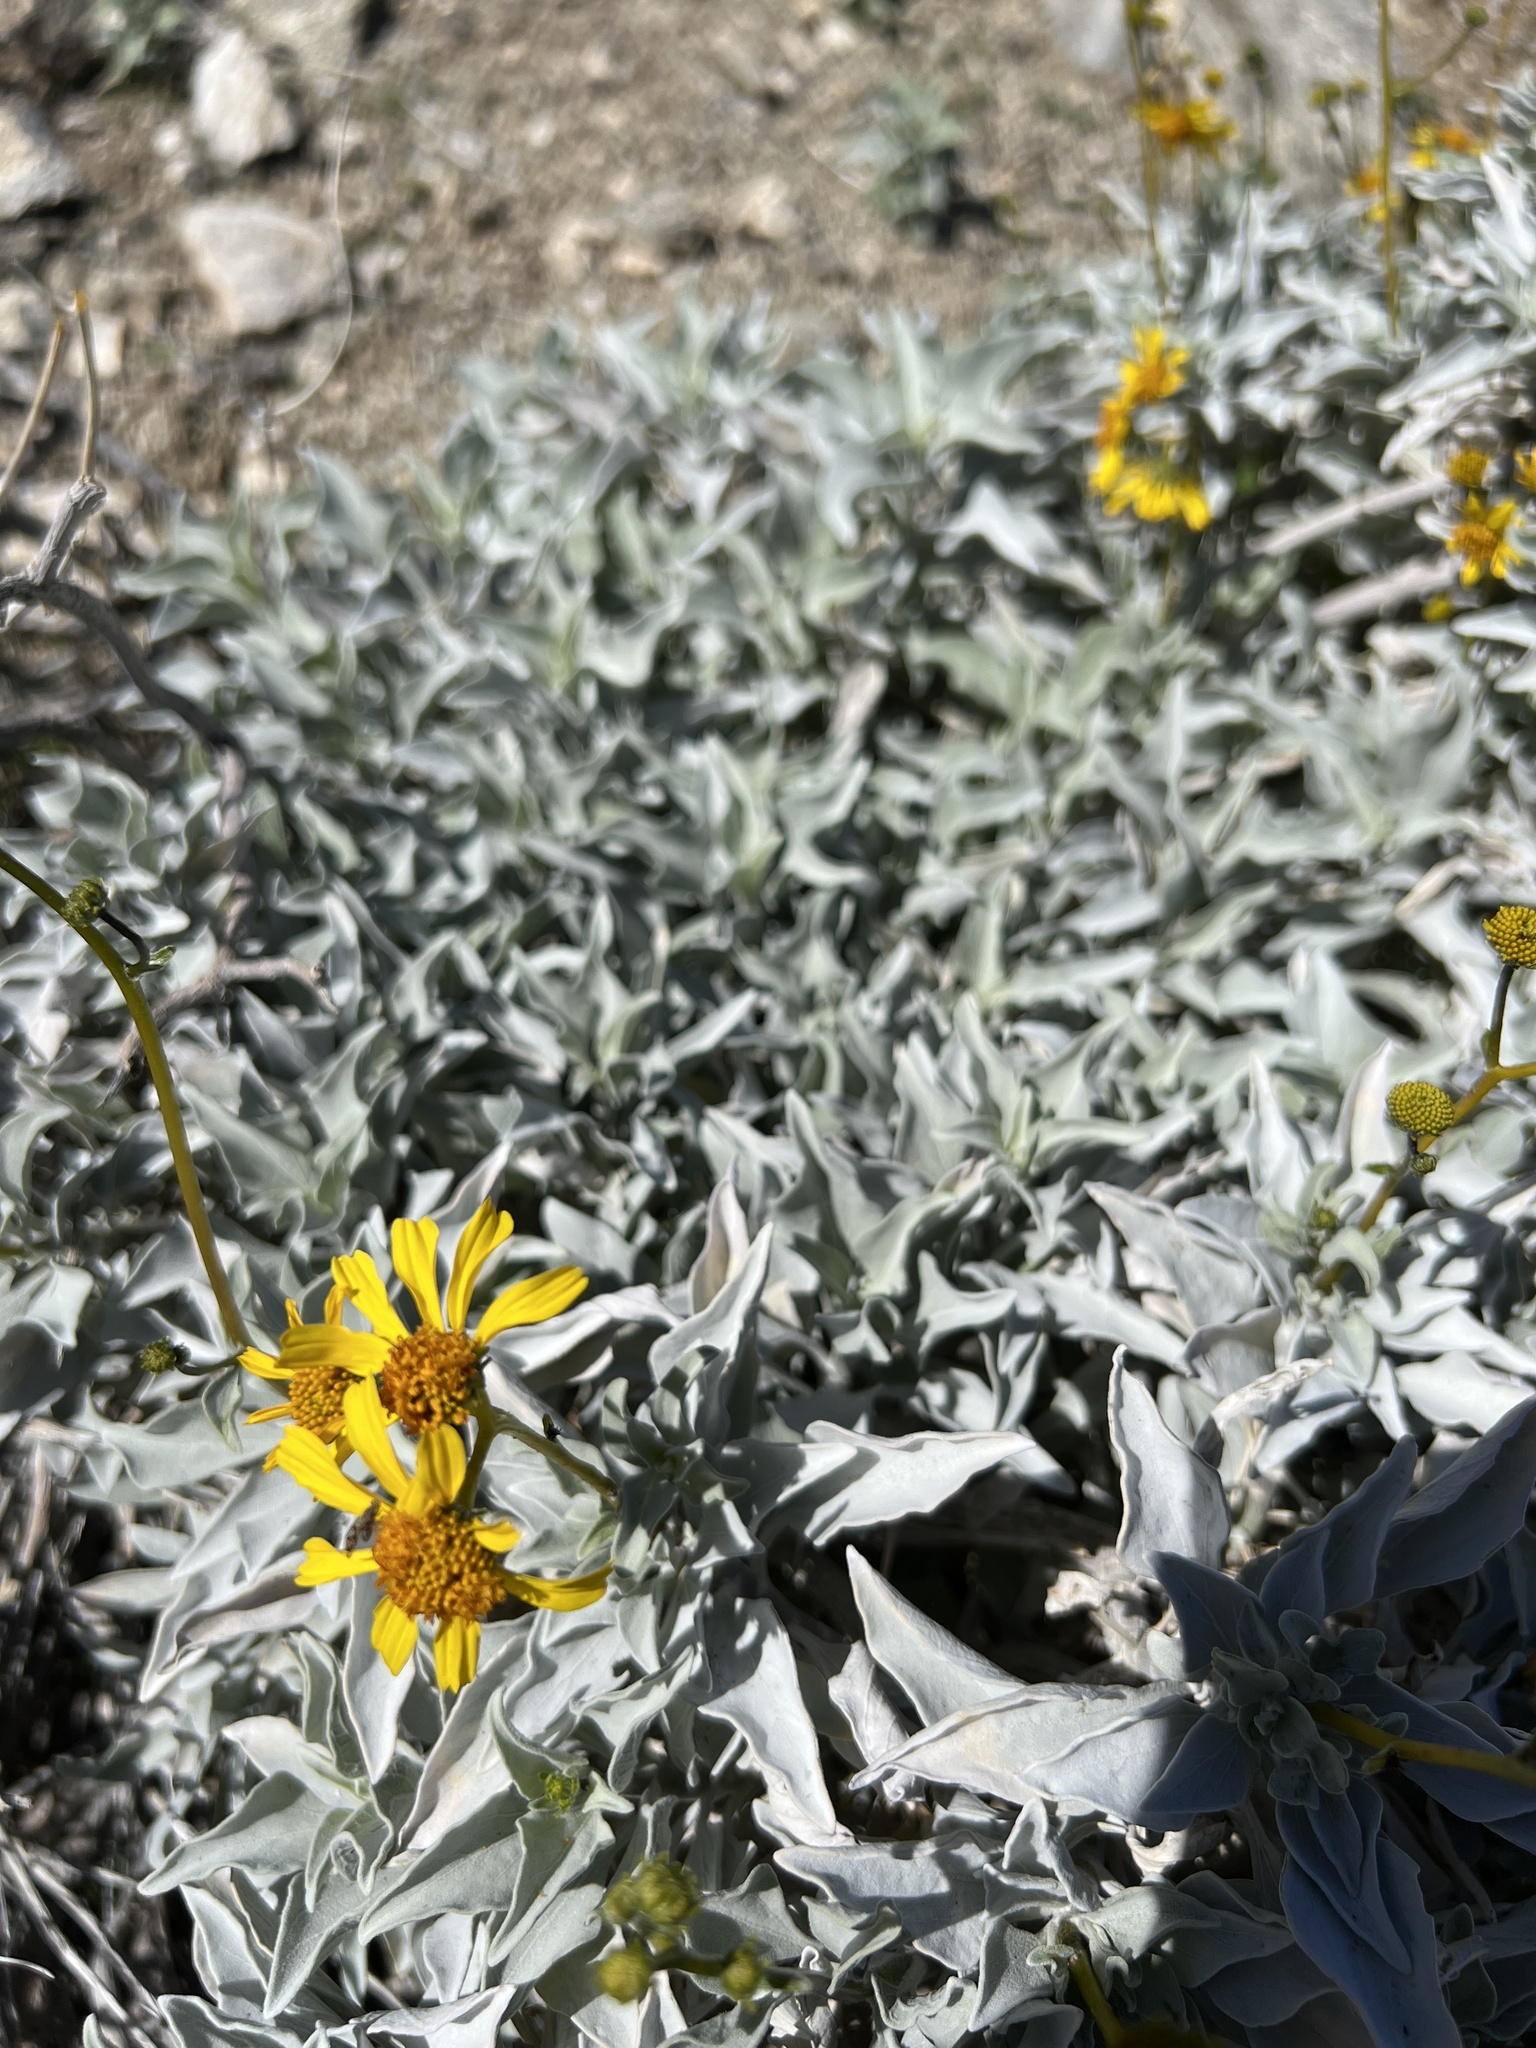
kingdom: Plantae
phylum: Tracheophyta
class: Magnoliopsida
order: Asterales
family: Asteraceae
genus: Encelia
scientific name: Encelia farinosa
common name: Brittlebush
